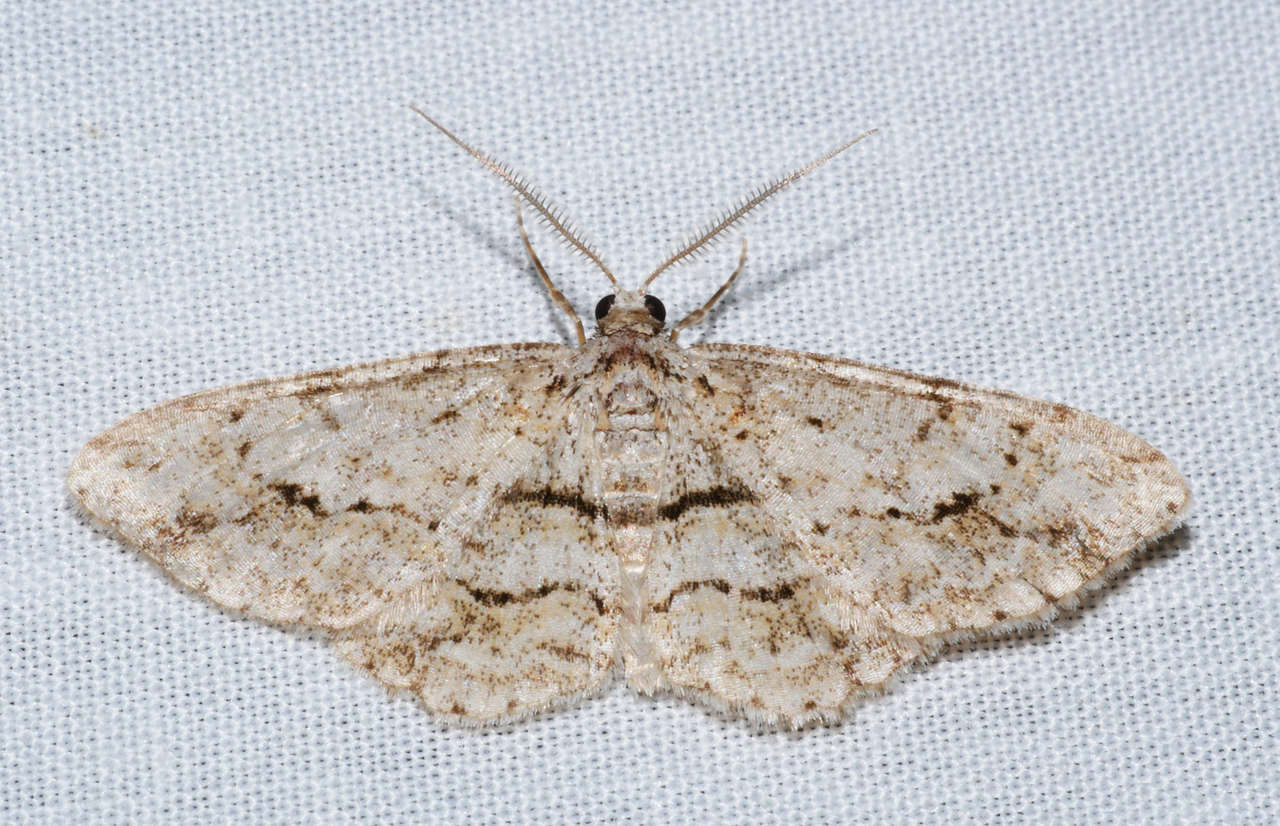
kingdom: Animalia
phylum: Arthropoda
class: Insecta
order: Lepidoptera
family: Geometridae
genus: Didymoctenia
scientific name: Didymoctenia exsuperata
